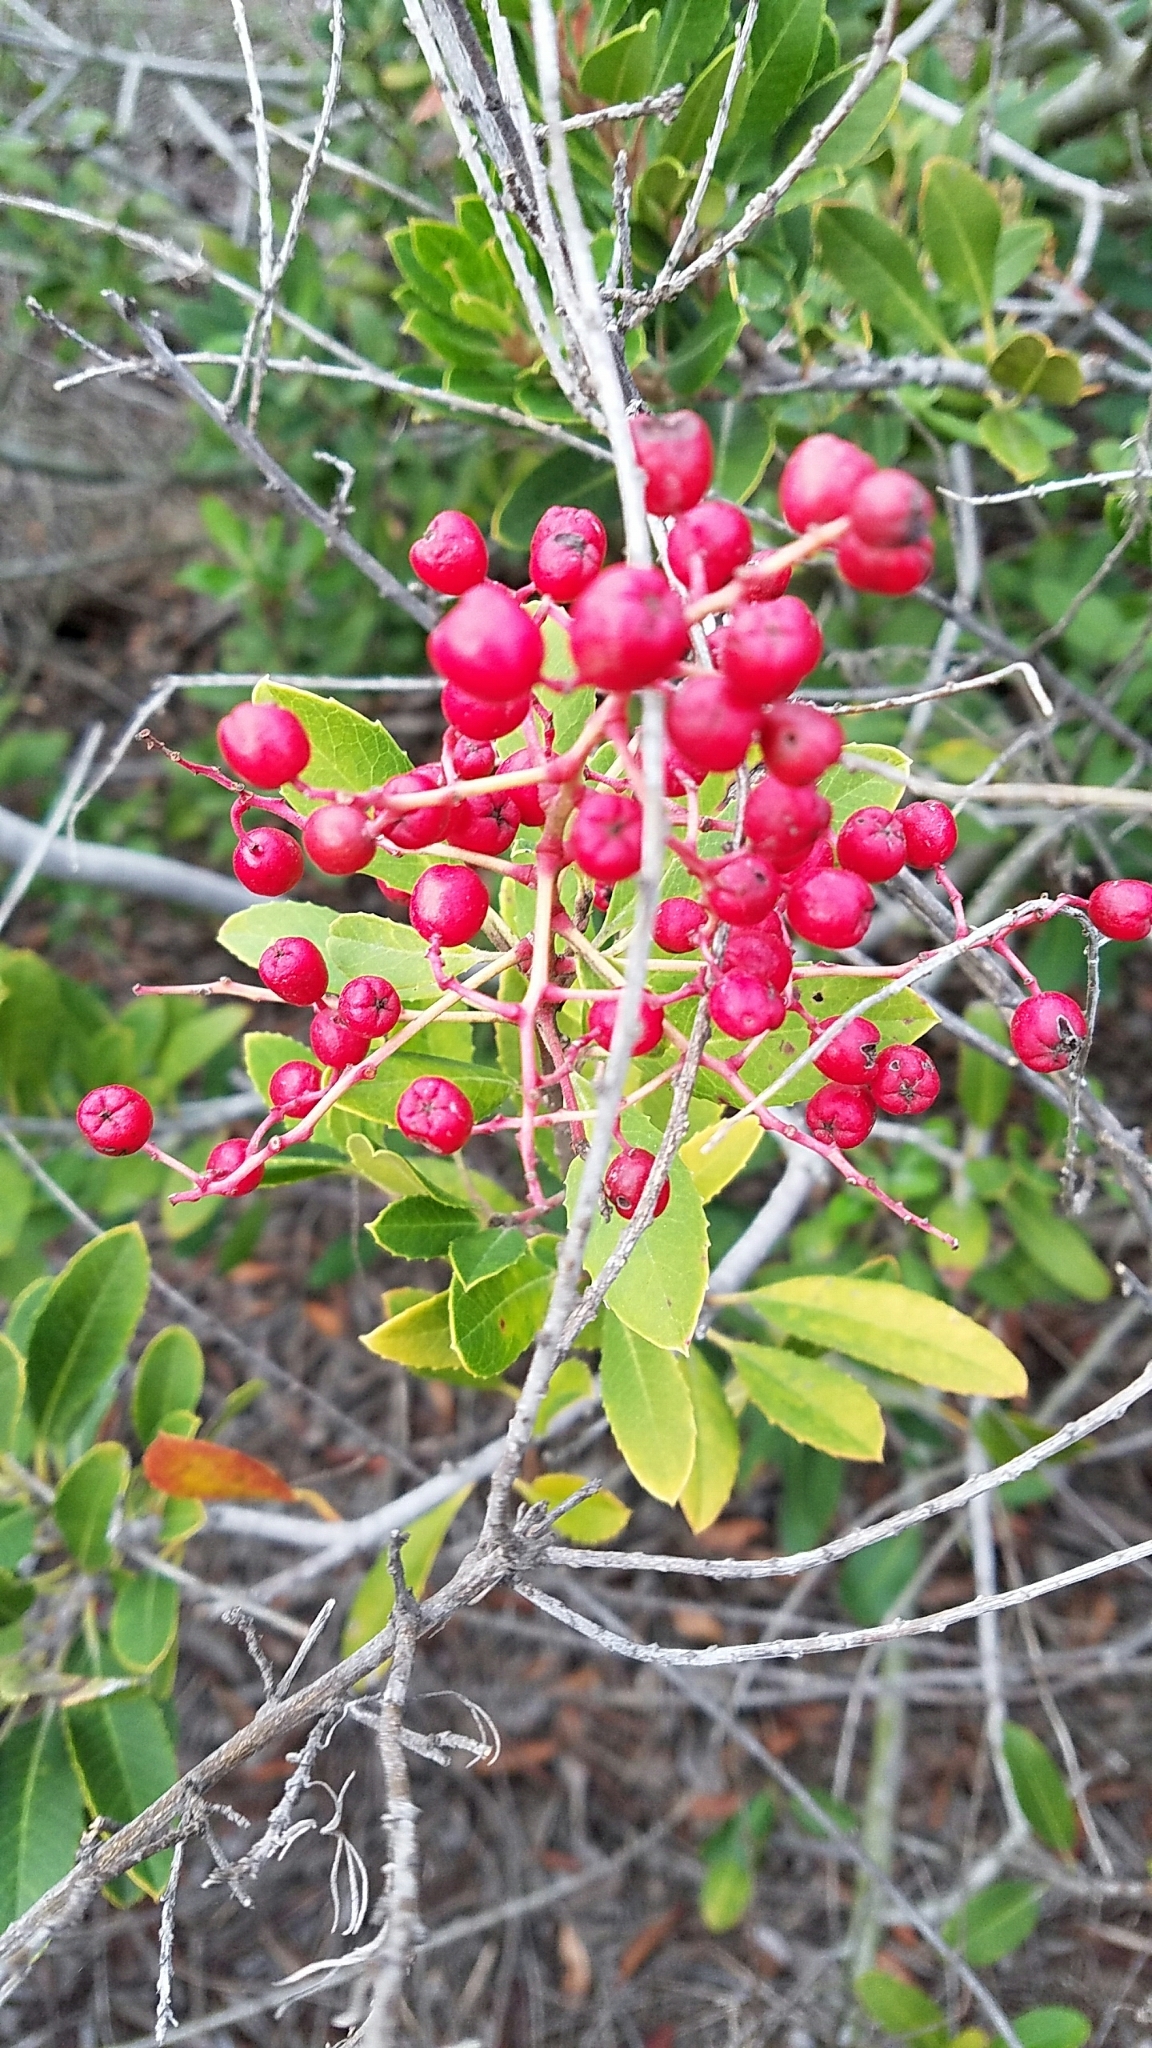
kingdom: Plantae
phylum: Tracheophyta
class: Magnoliopsida
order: Rosales
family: Rosaceae
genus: Heteromeles
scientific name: Heteromeles arbutifolia
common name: California-holly
